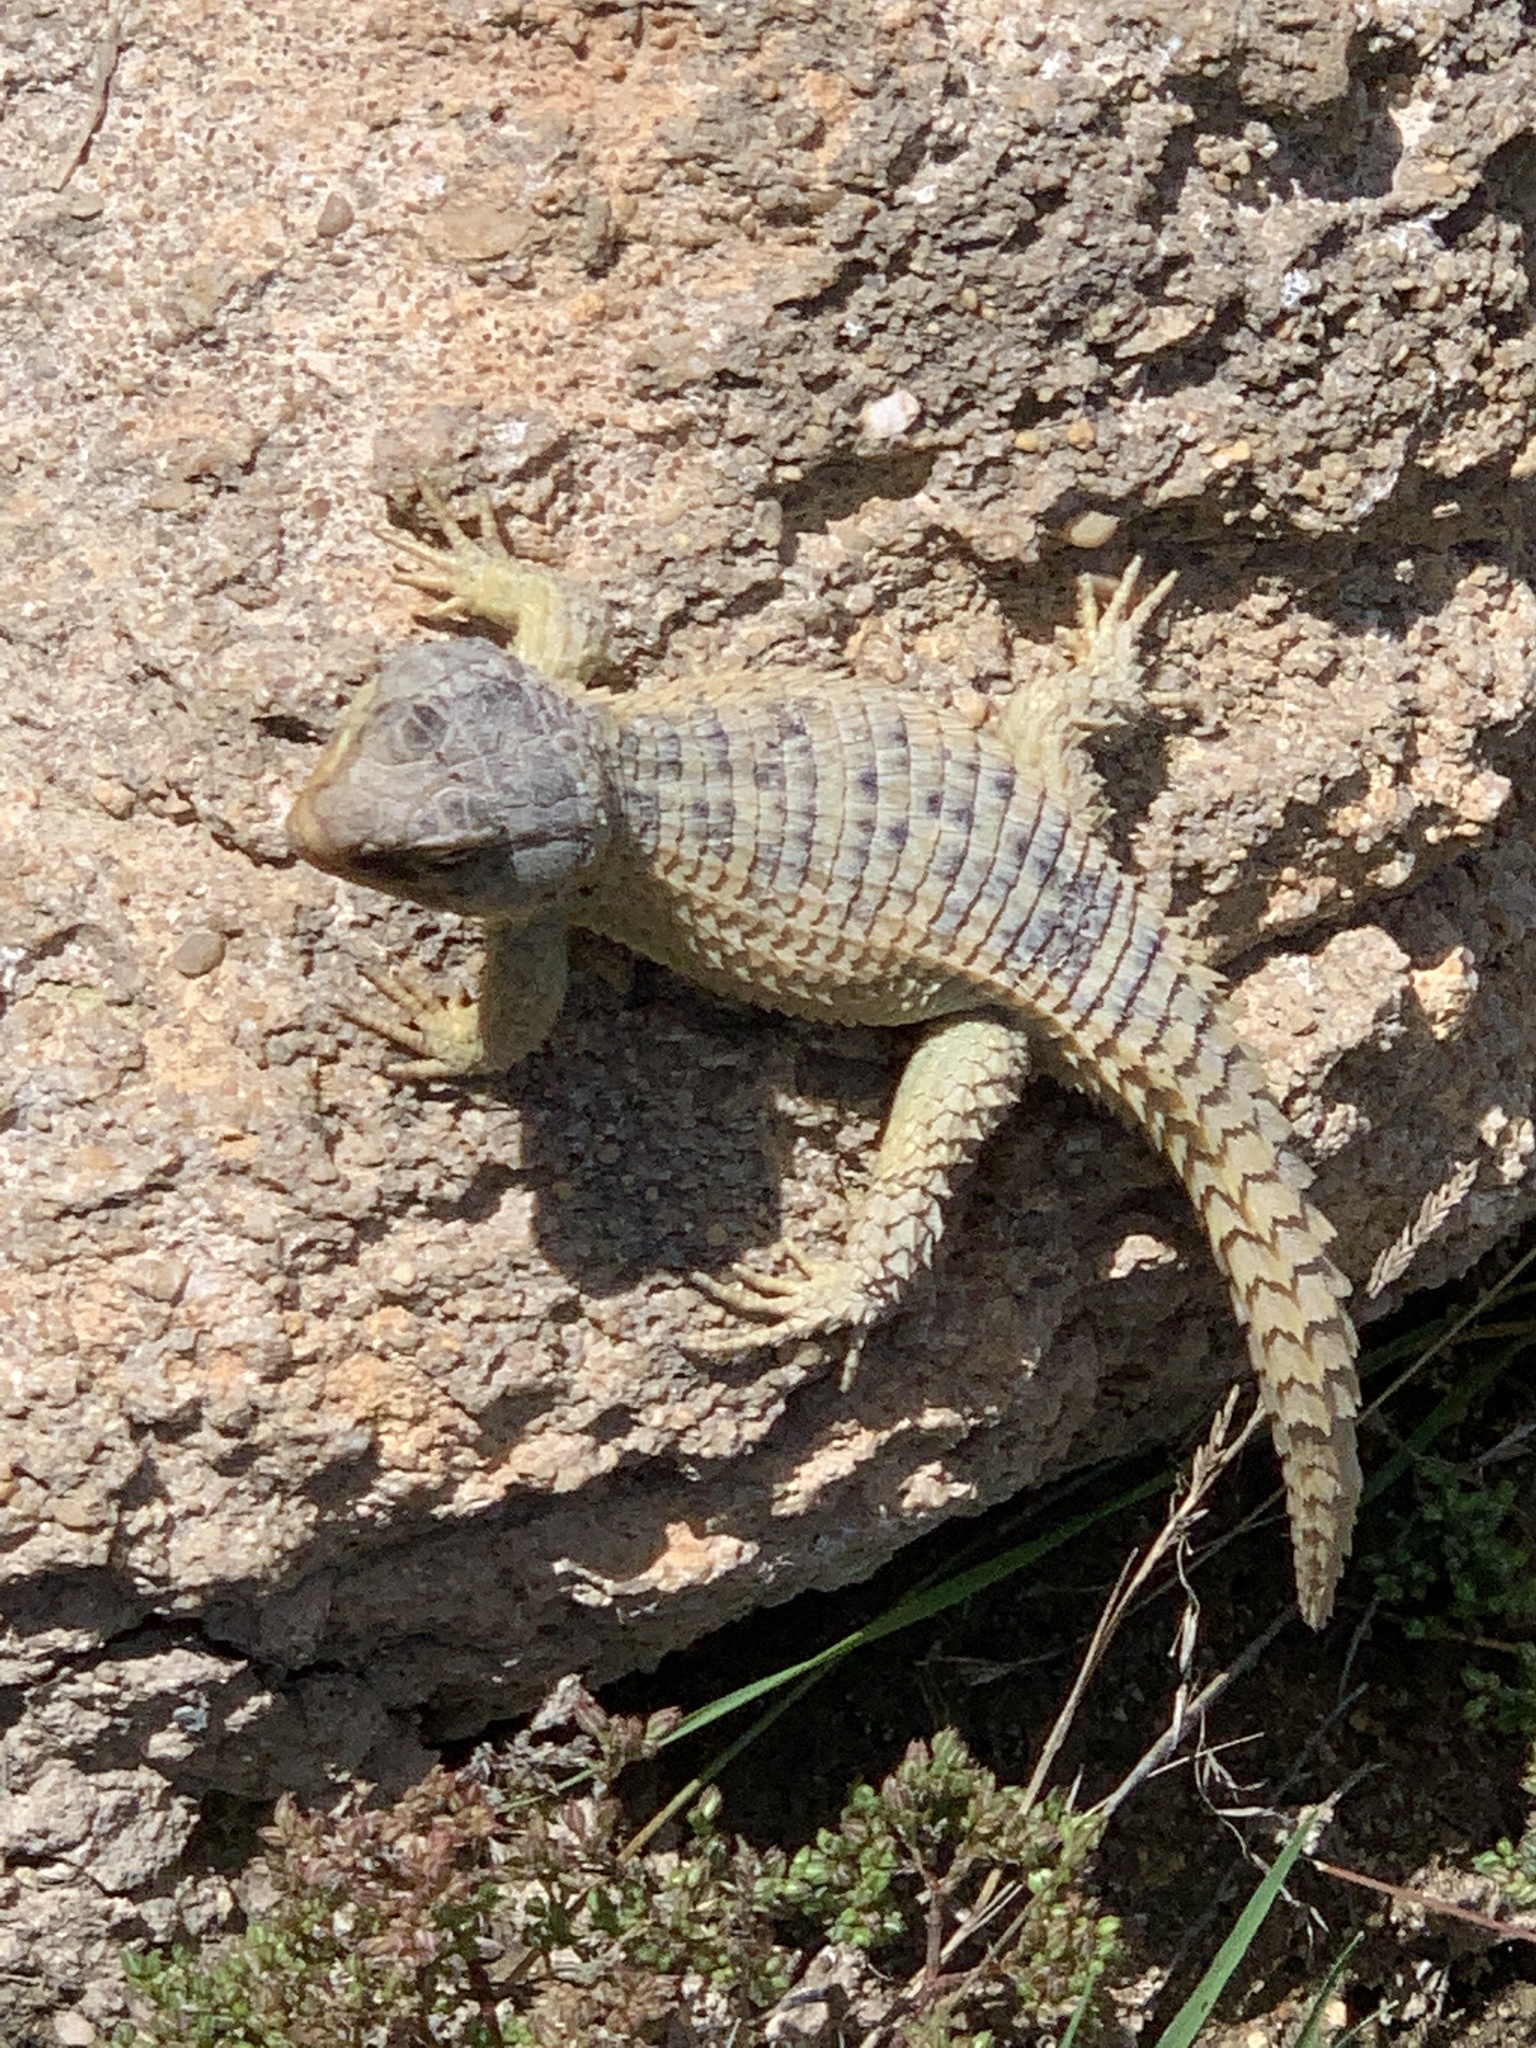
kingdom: Animalia
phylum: Chordata
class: Squamata
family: Cordylidae
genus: Cordylus
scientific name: Cordylus cordylus
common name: Cape girdled lizard
